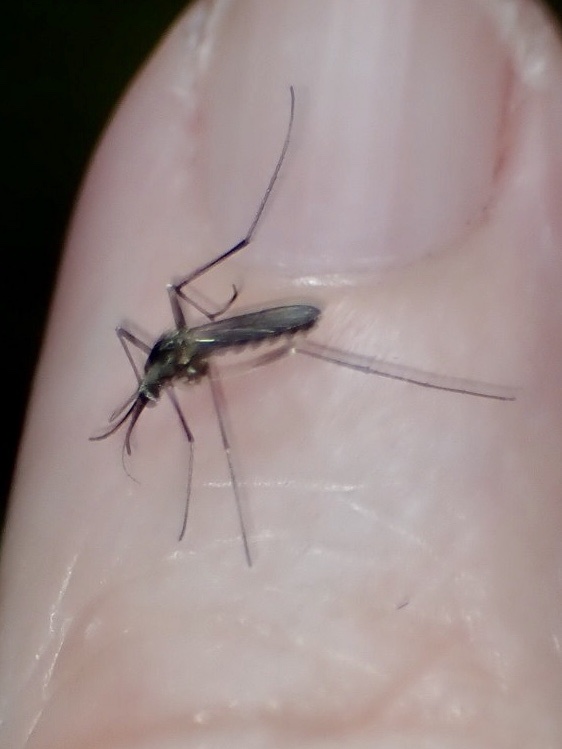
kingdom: Animalia
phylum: Arthropoda
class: Insecta
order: Diptera
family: Culicidae
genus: Aedes
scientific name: Aedes triseriatus
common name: Eastern treehole mosquito
